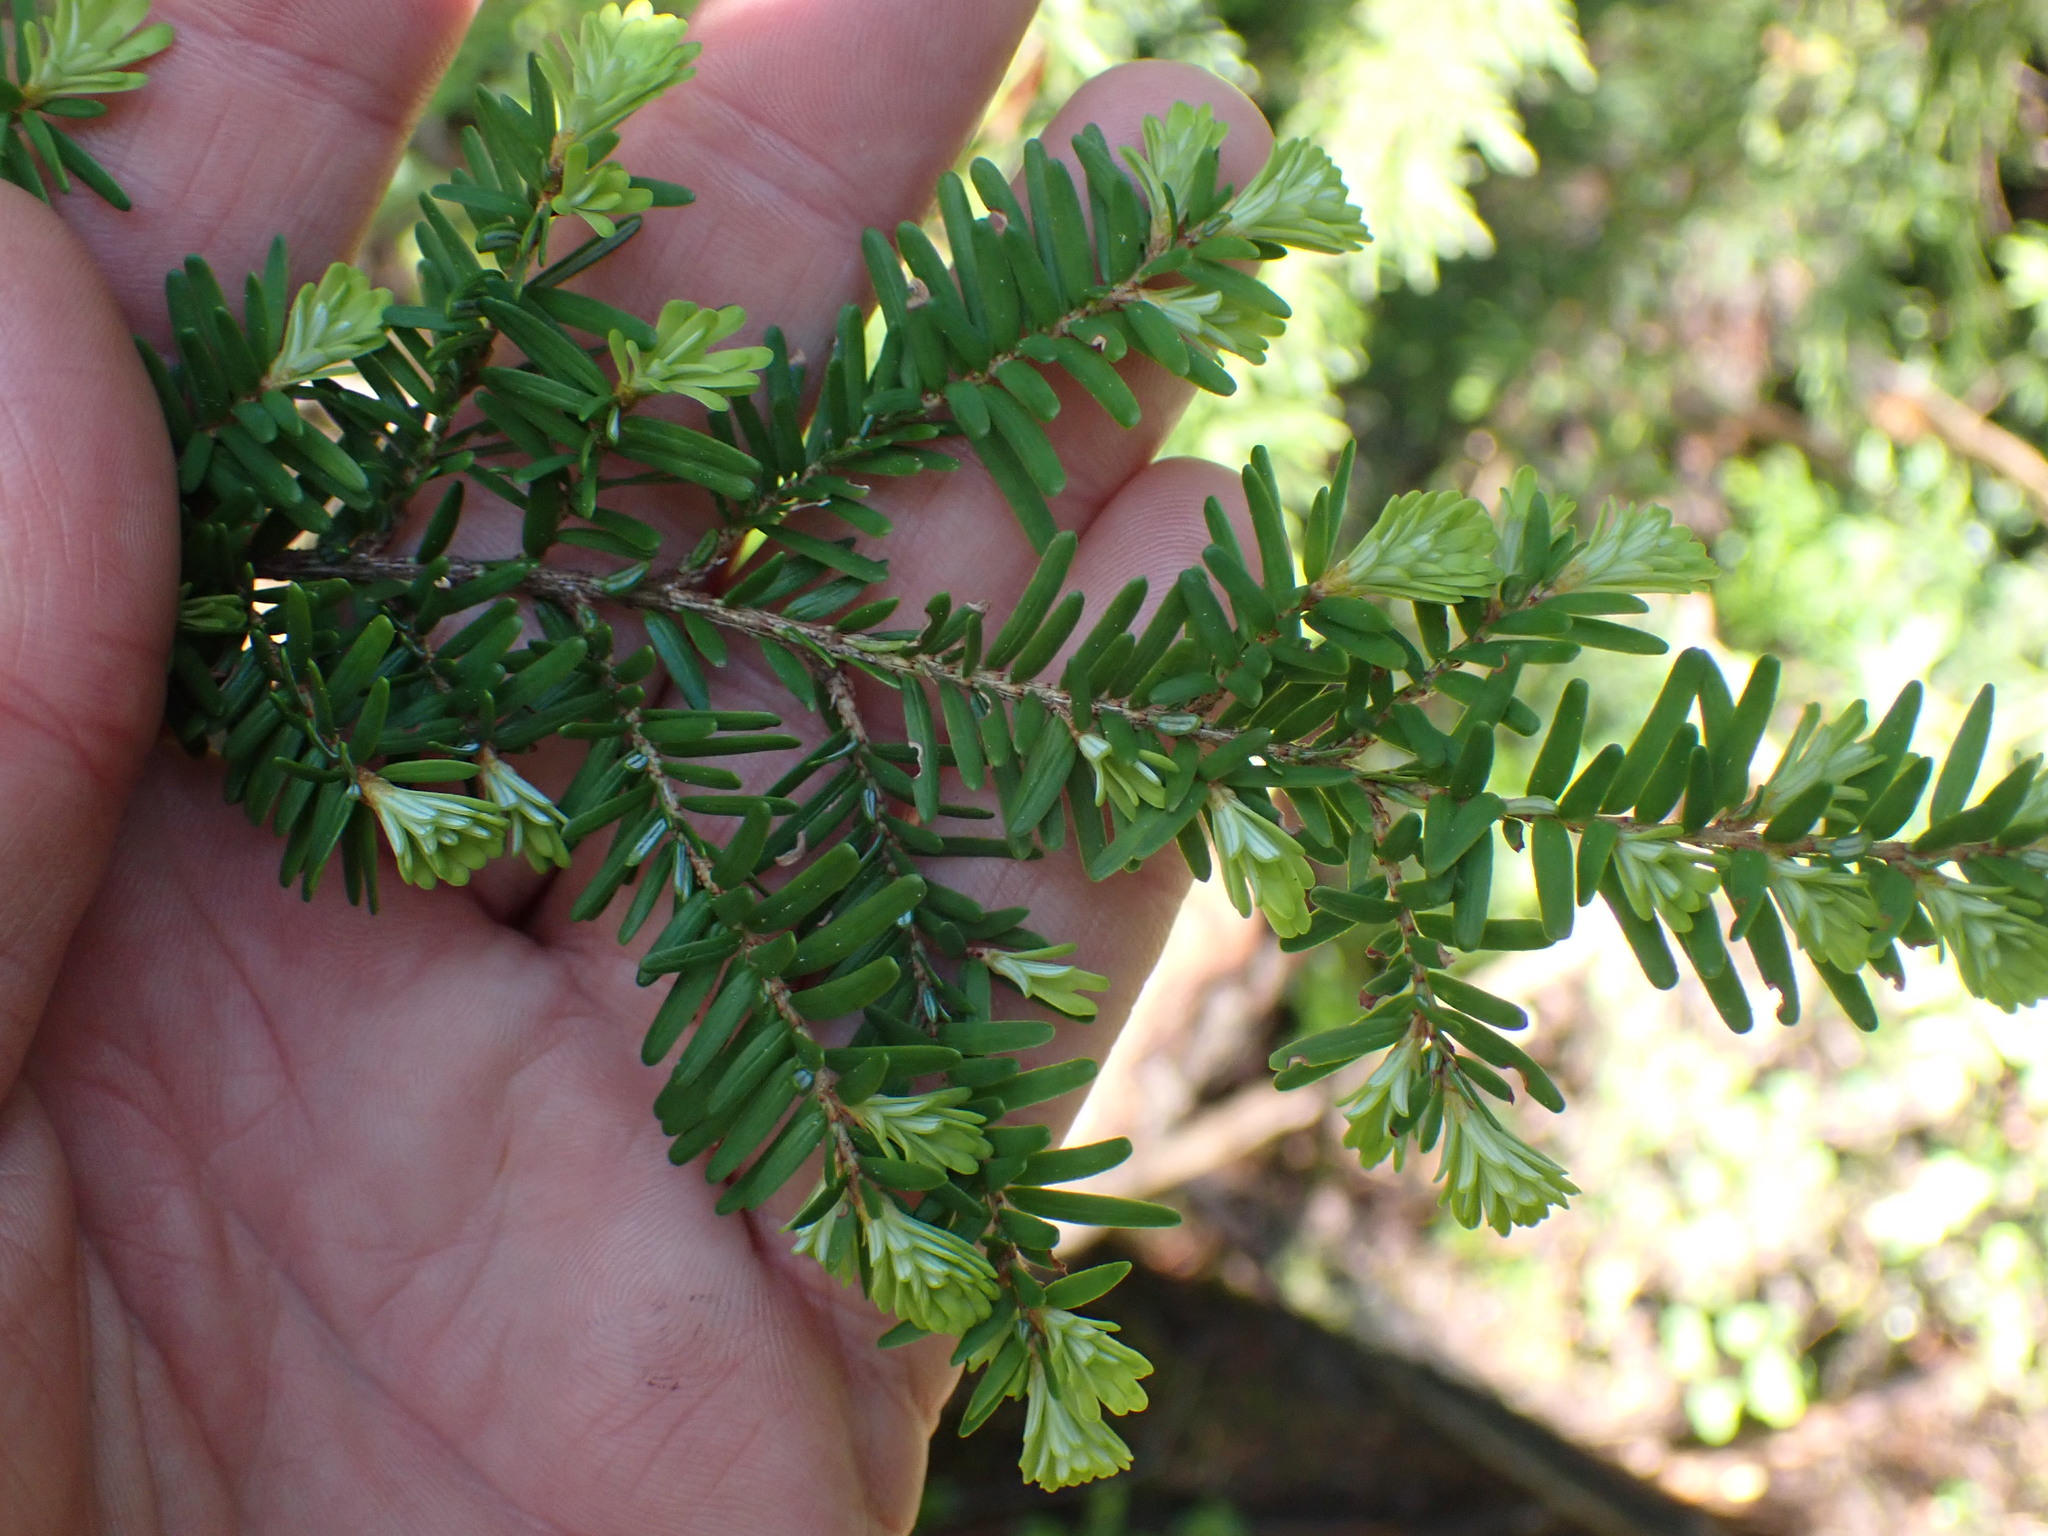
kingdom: Plantae
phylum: Tracheophyta
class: Pinopsida
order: Pinales
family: Pinaceae
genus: Tsuga
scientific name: Tsuga heterophylla
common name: Western hemlock
